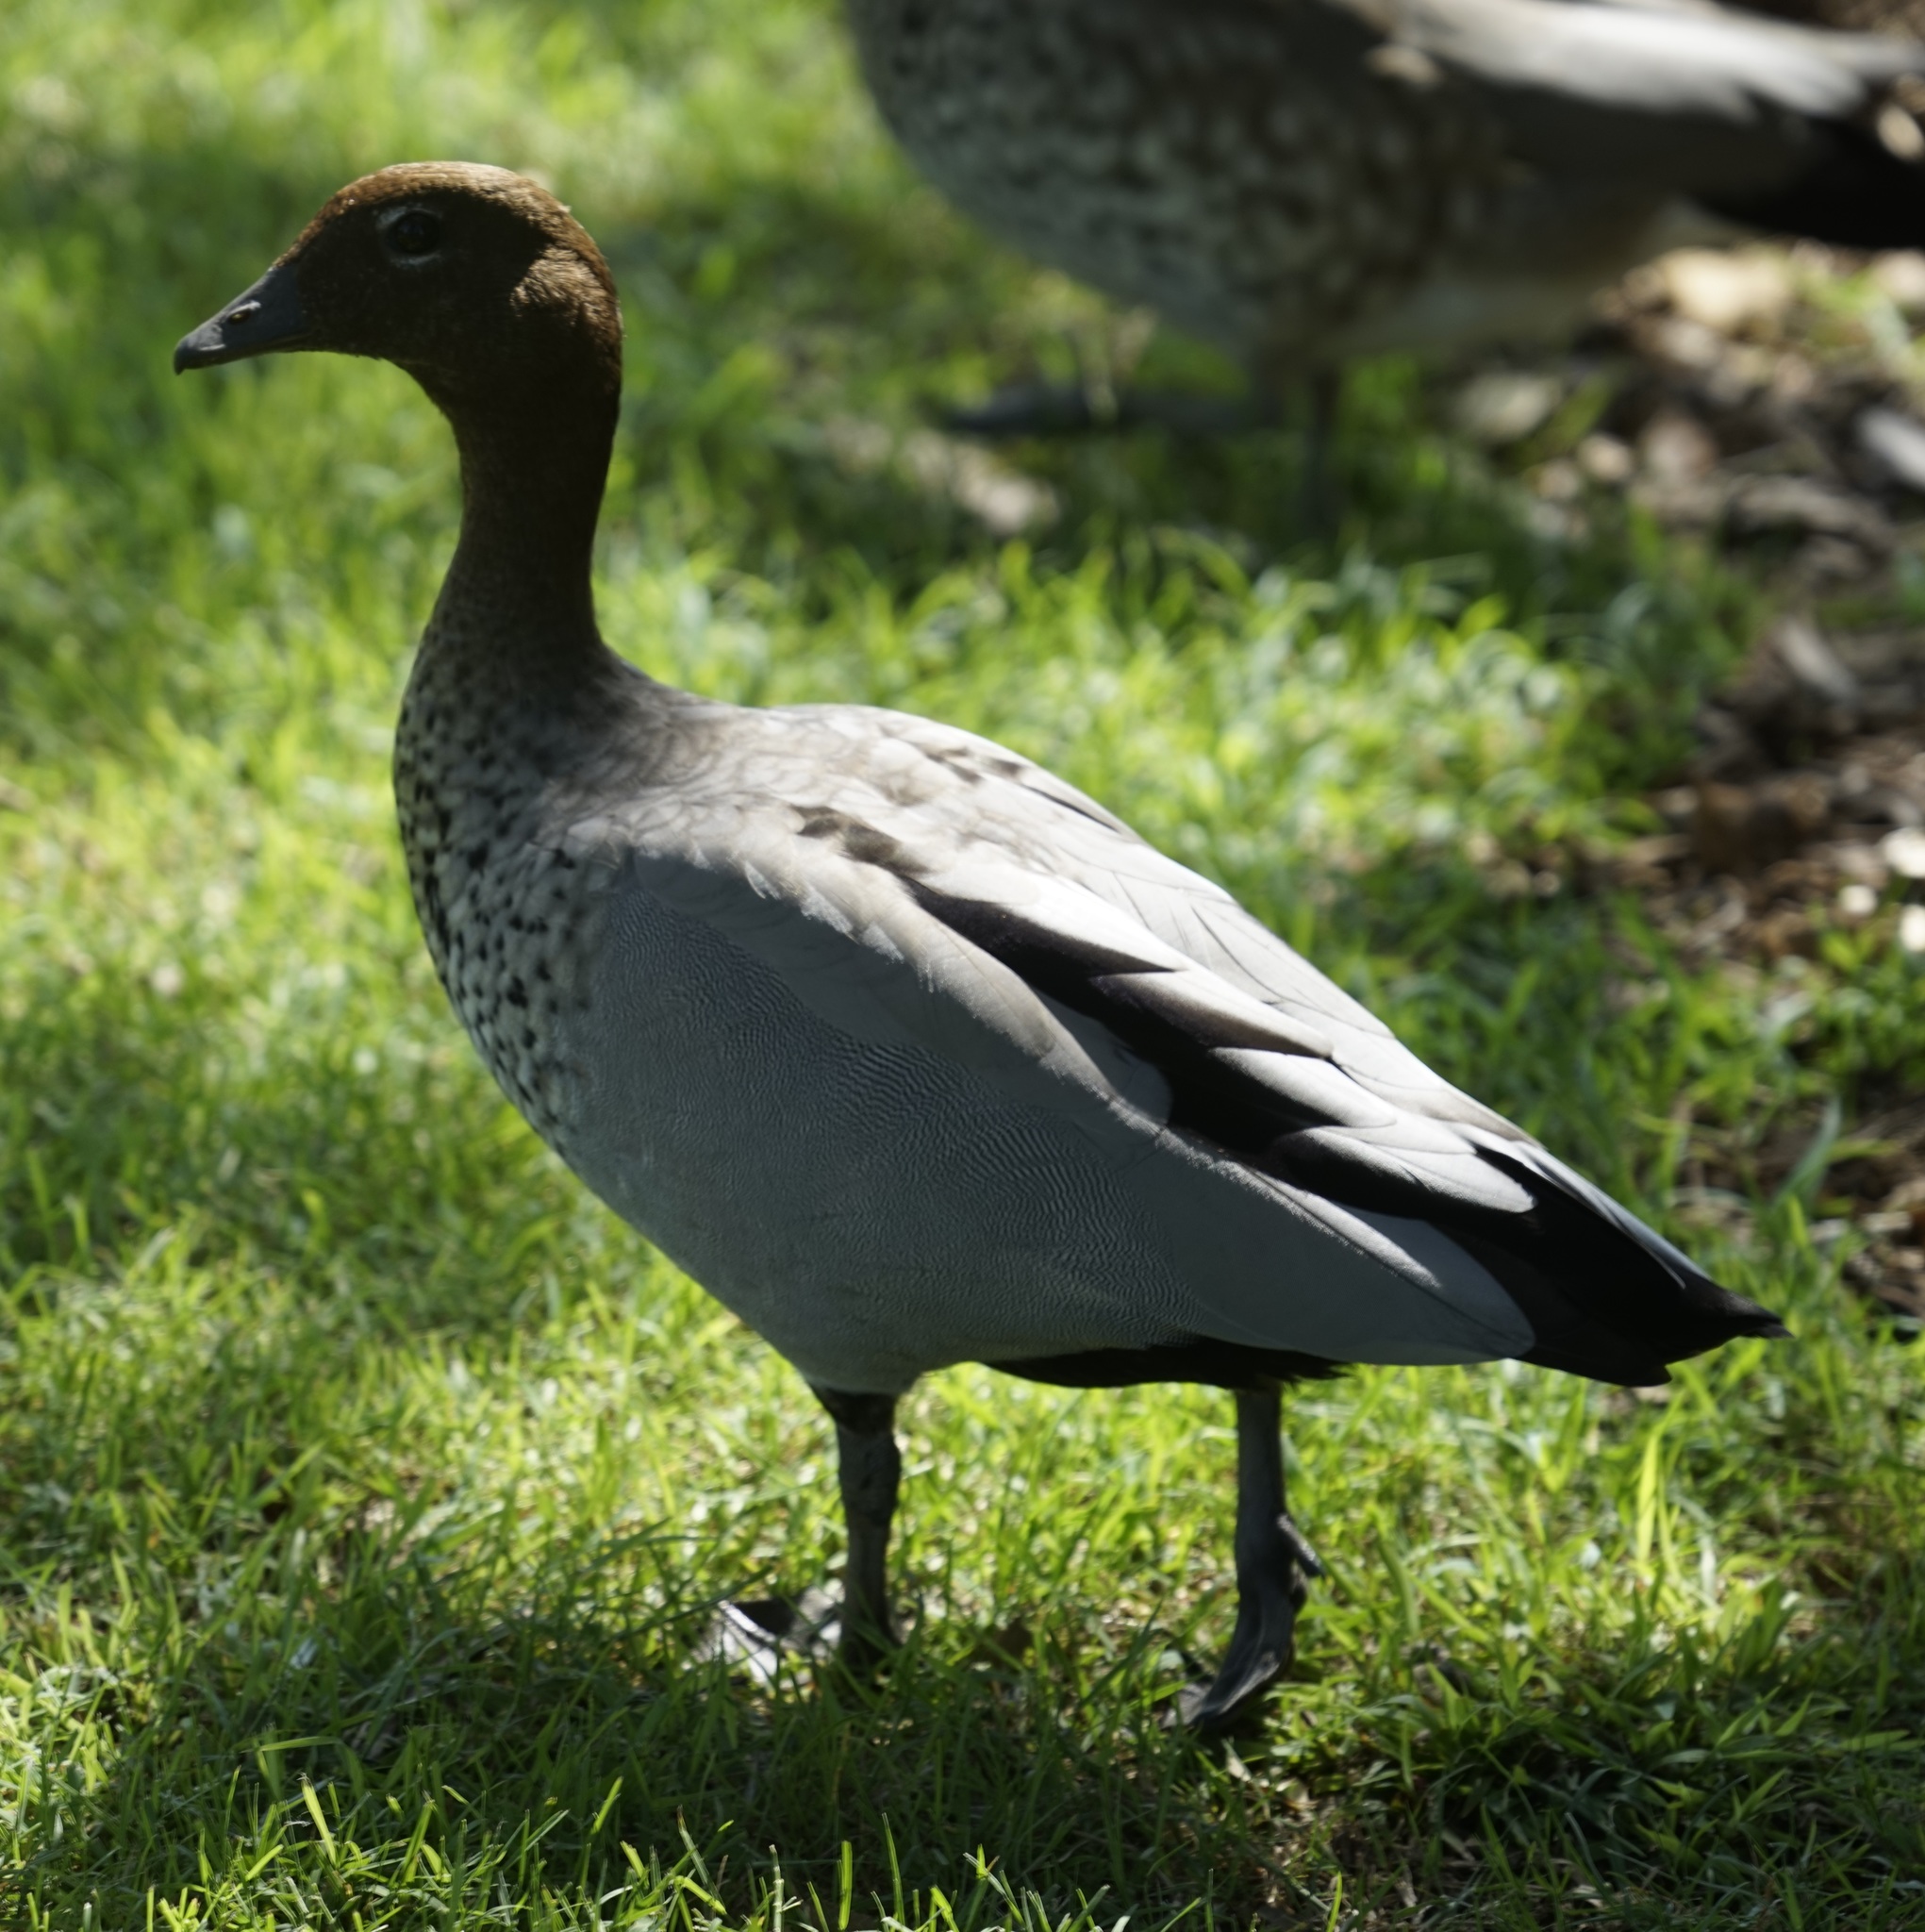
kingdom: Animalia
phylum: Chordata
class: Aves
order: Anseriformes
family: Anatidae
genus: Chenonetta
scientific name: Chenonetta jubata
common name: Maned duck
